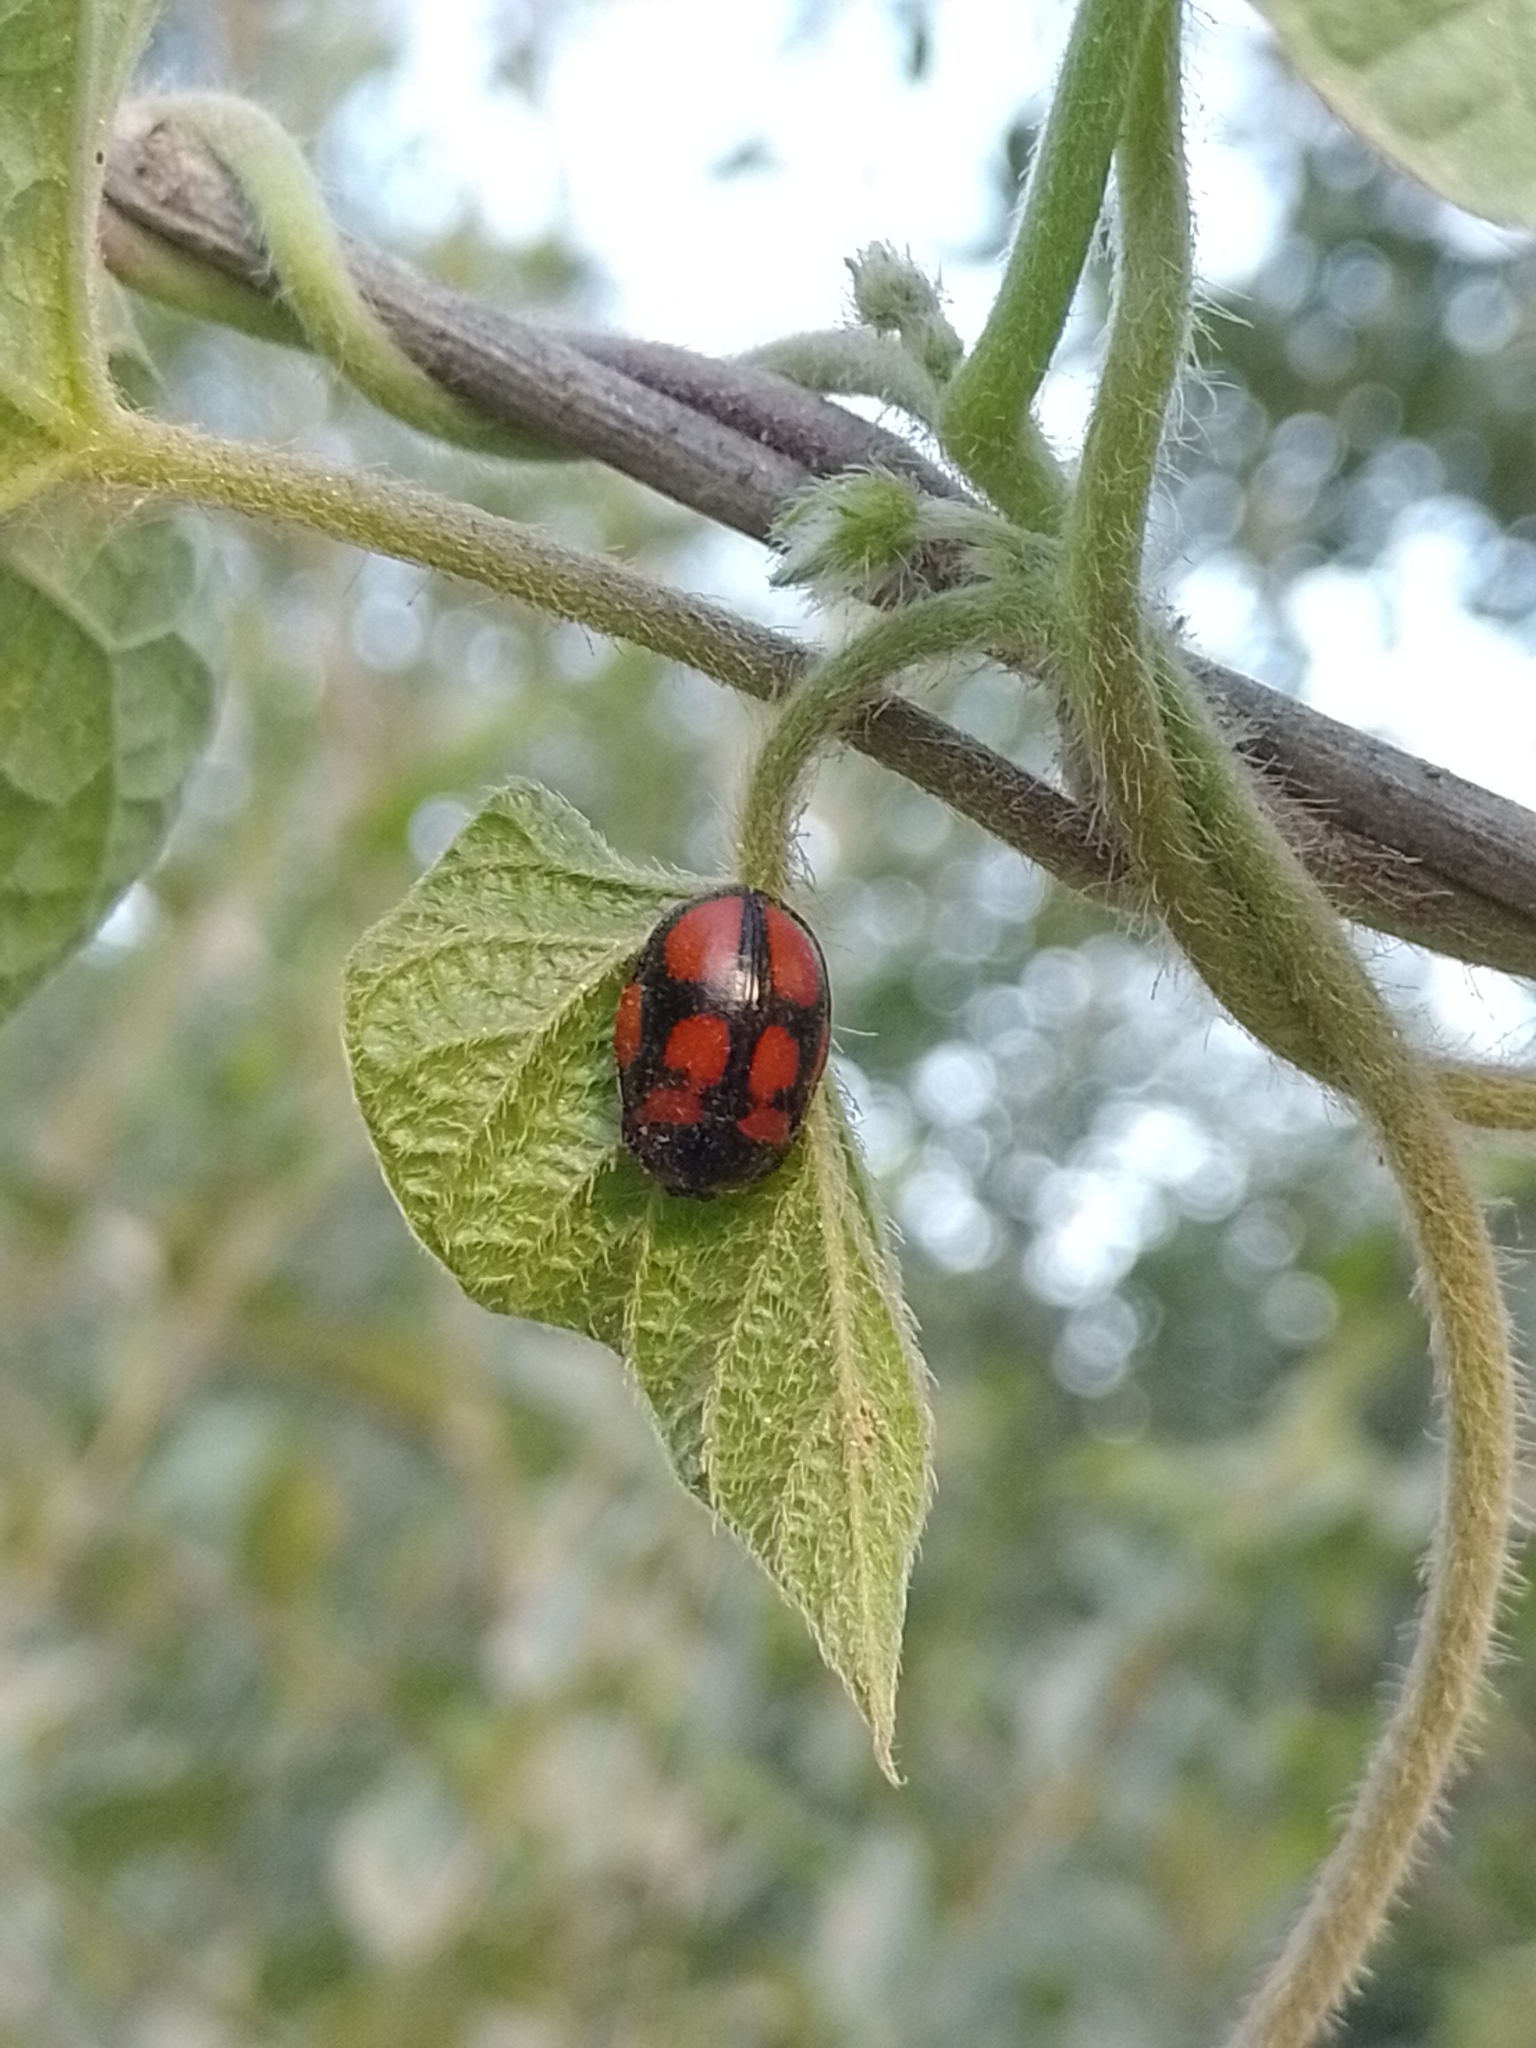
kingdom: Animalia
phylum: Arthropoda
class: Insecta
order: Coleoptera
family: Chrysomelidae
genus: Chelymorpha
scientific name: Chelymorpha areata
